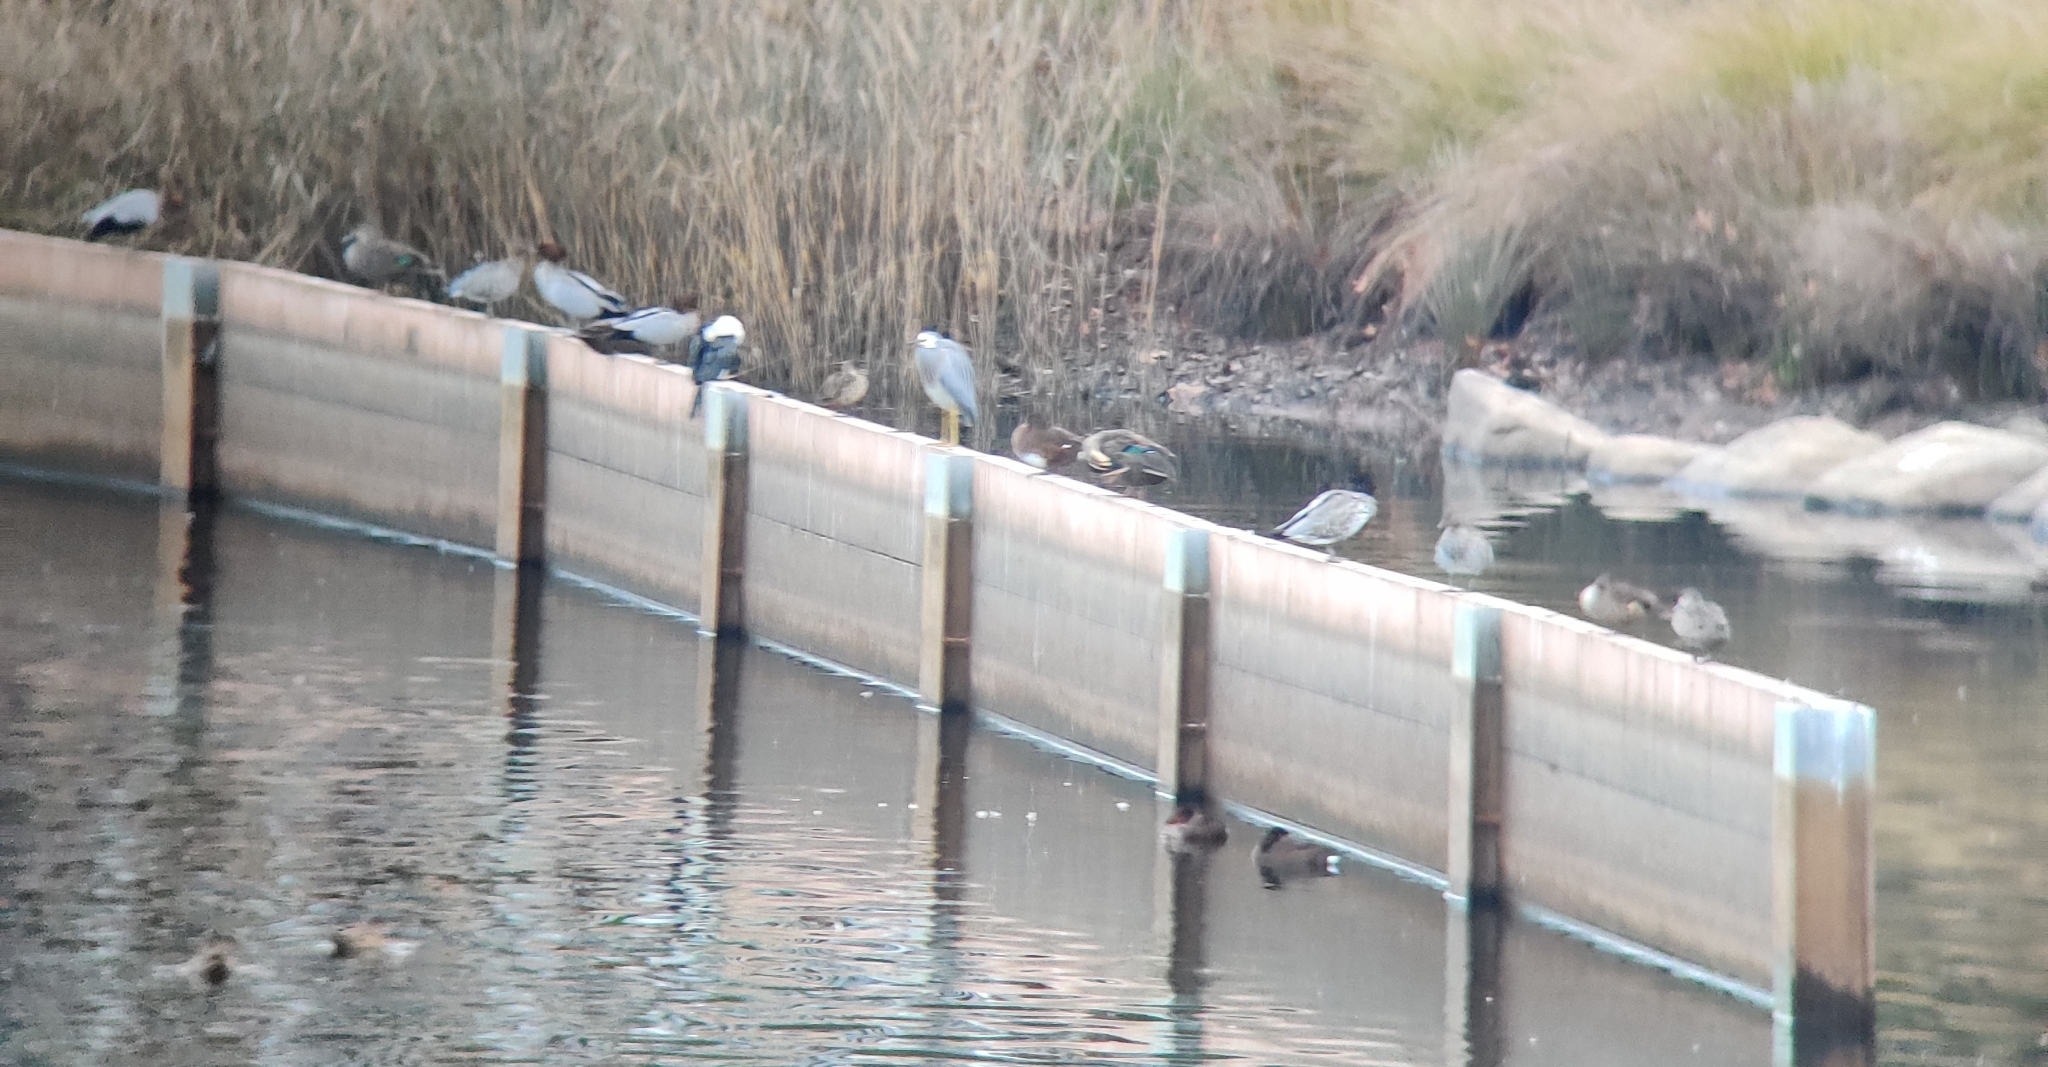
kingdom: Animalia
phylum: Chordata
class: Aves
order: Suliformes
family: Phalacrocoracidae
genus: Microcarbo
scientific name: Microcarbo melanoleucos
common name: Little pied cormorant
